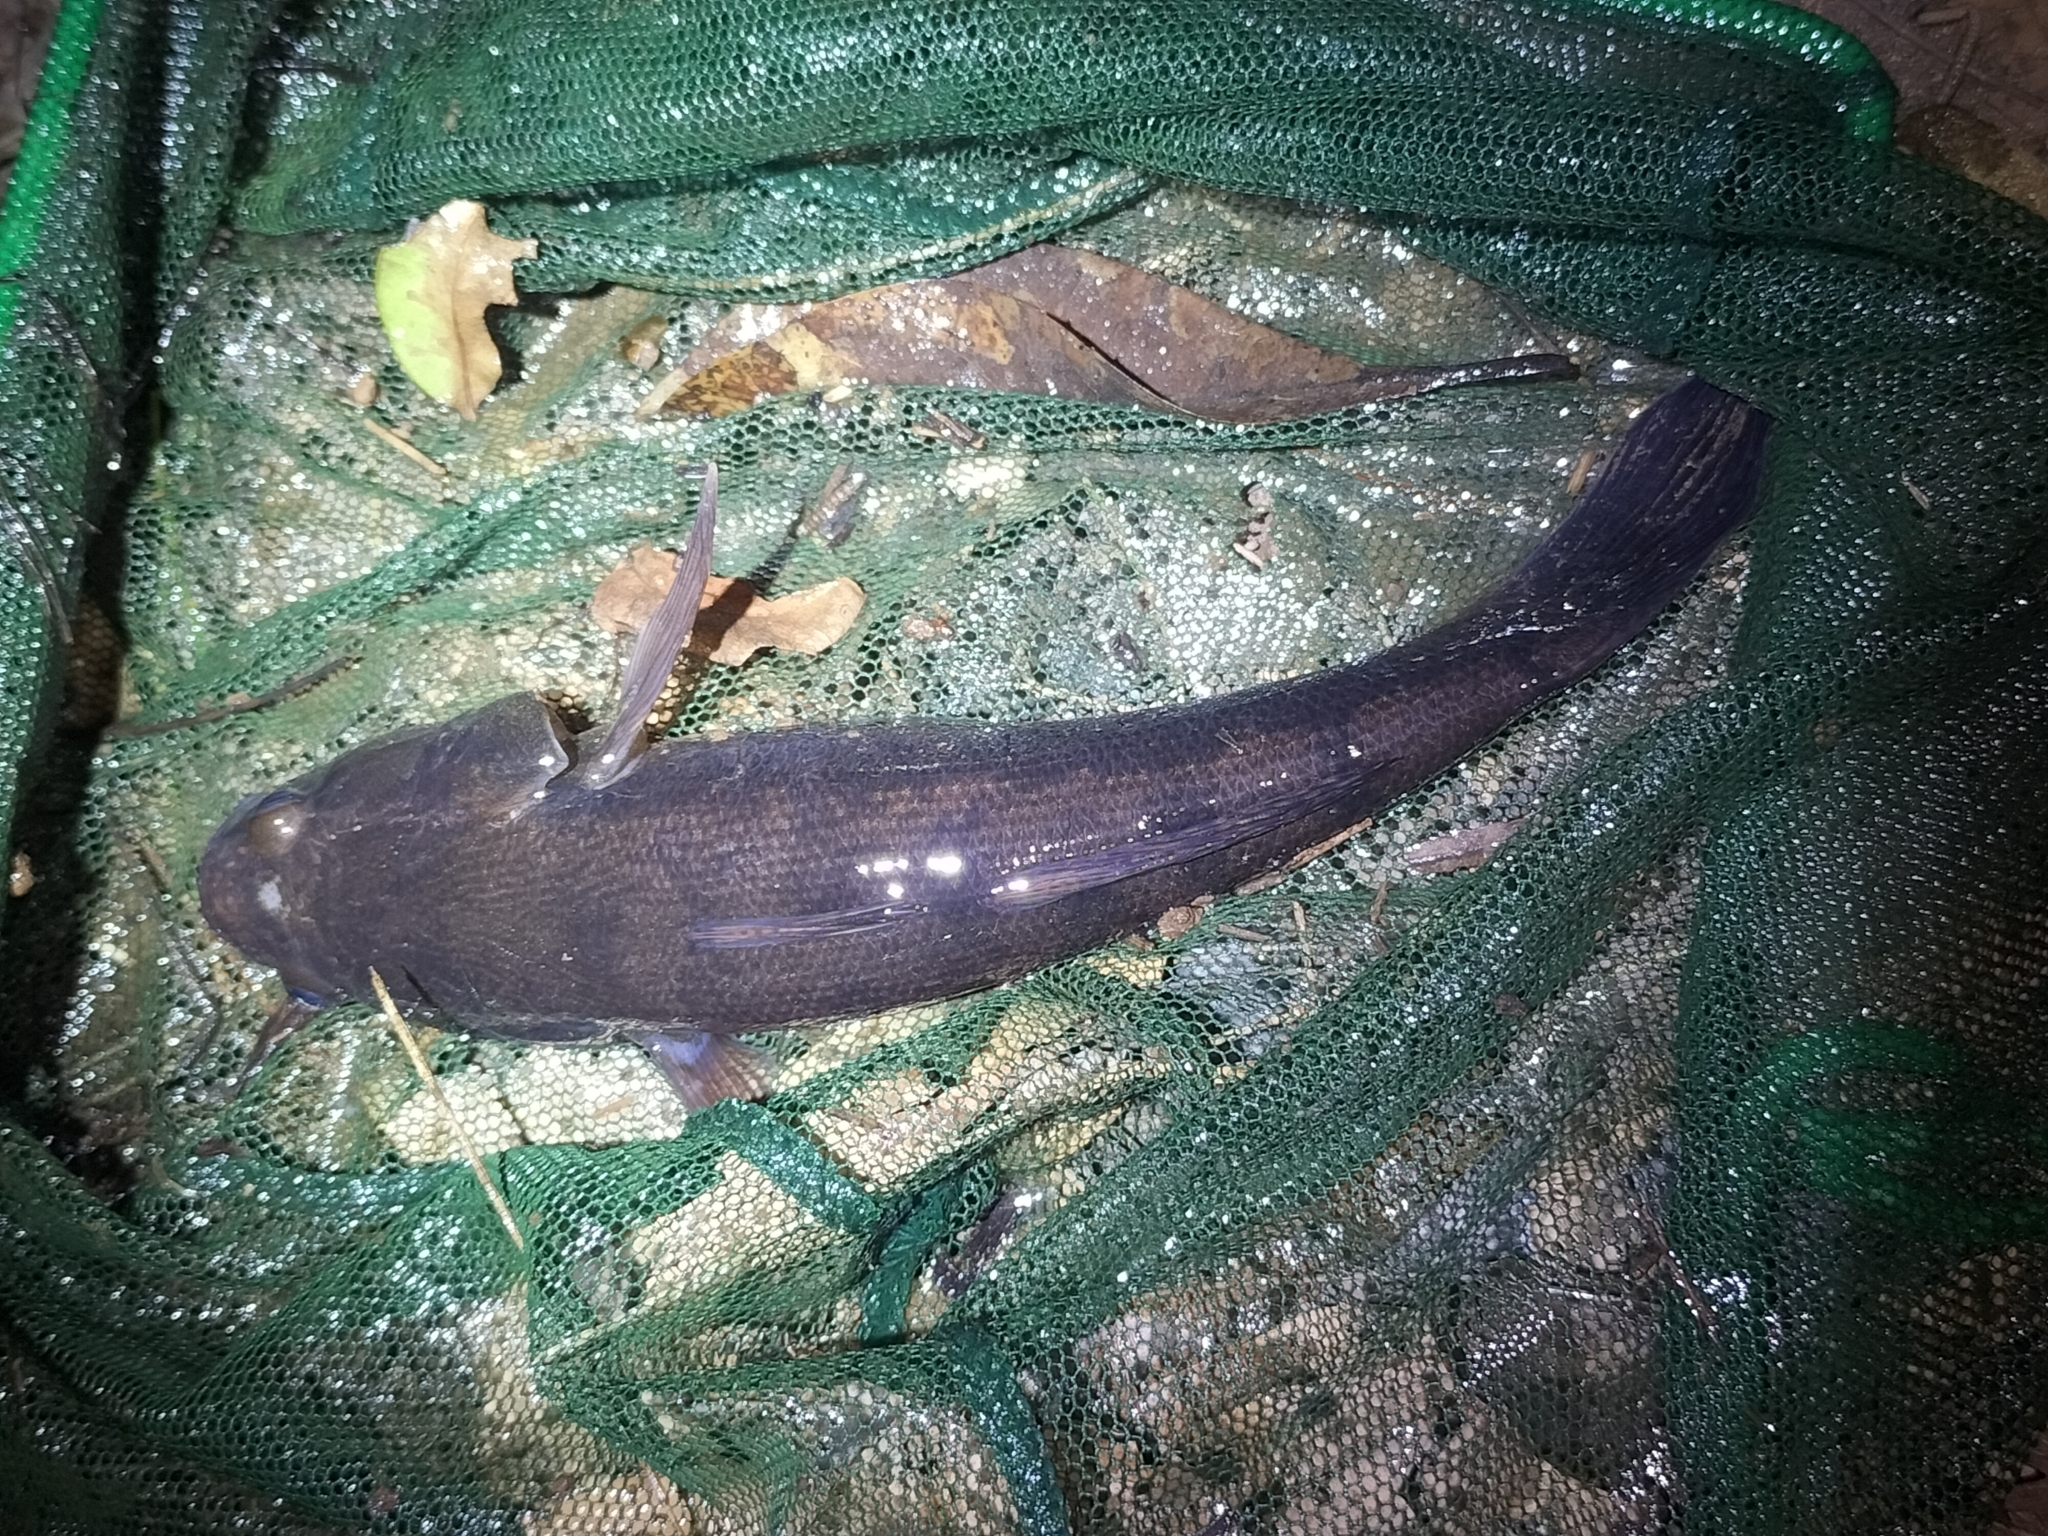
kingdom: Animalia
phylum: Chordata
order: Perciformes
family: Eleotridae
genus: Oxyeleotris
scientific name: Oxyeleotris lineolata
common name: Sleepy cod
